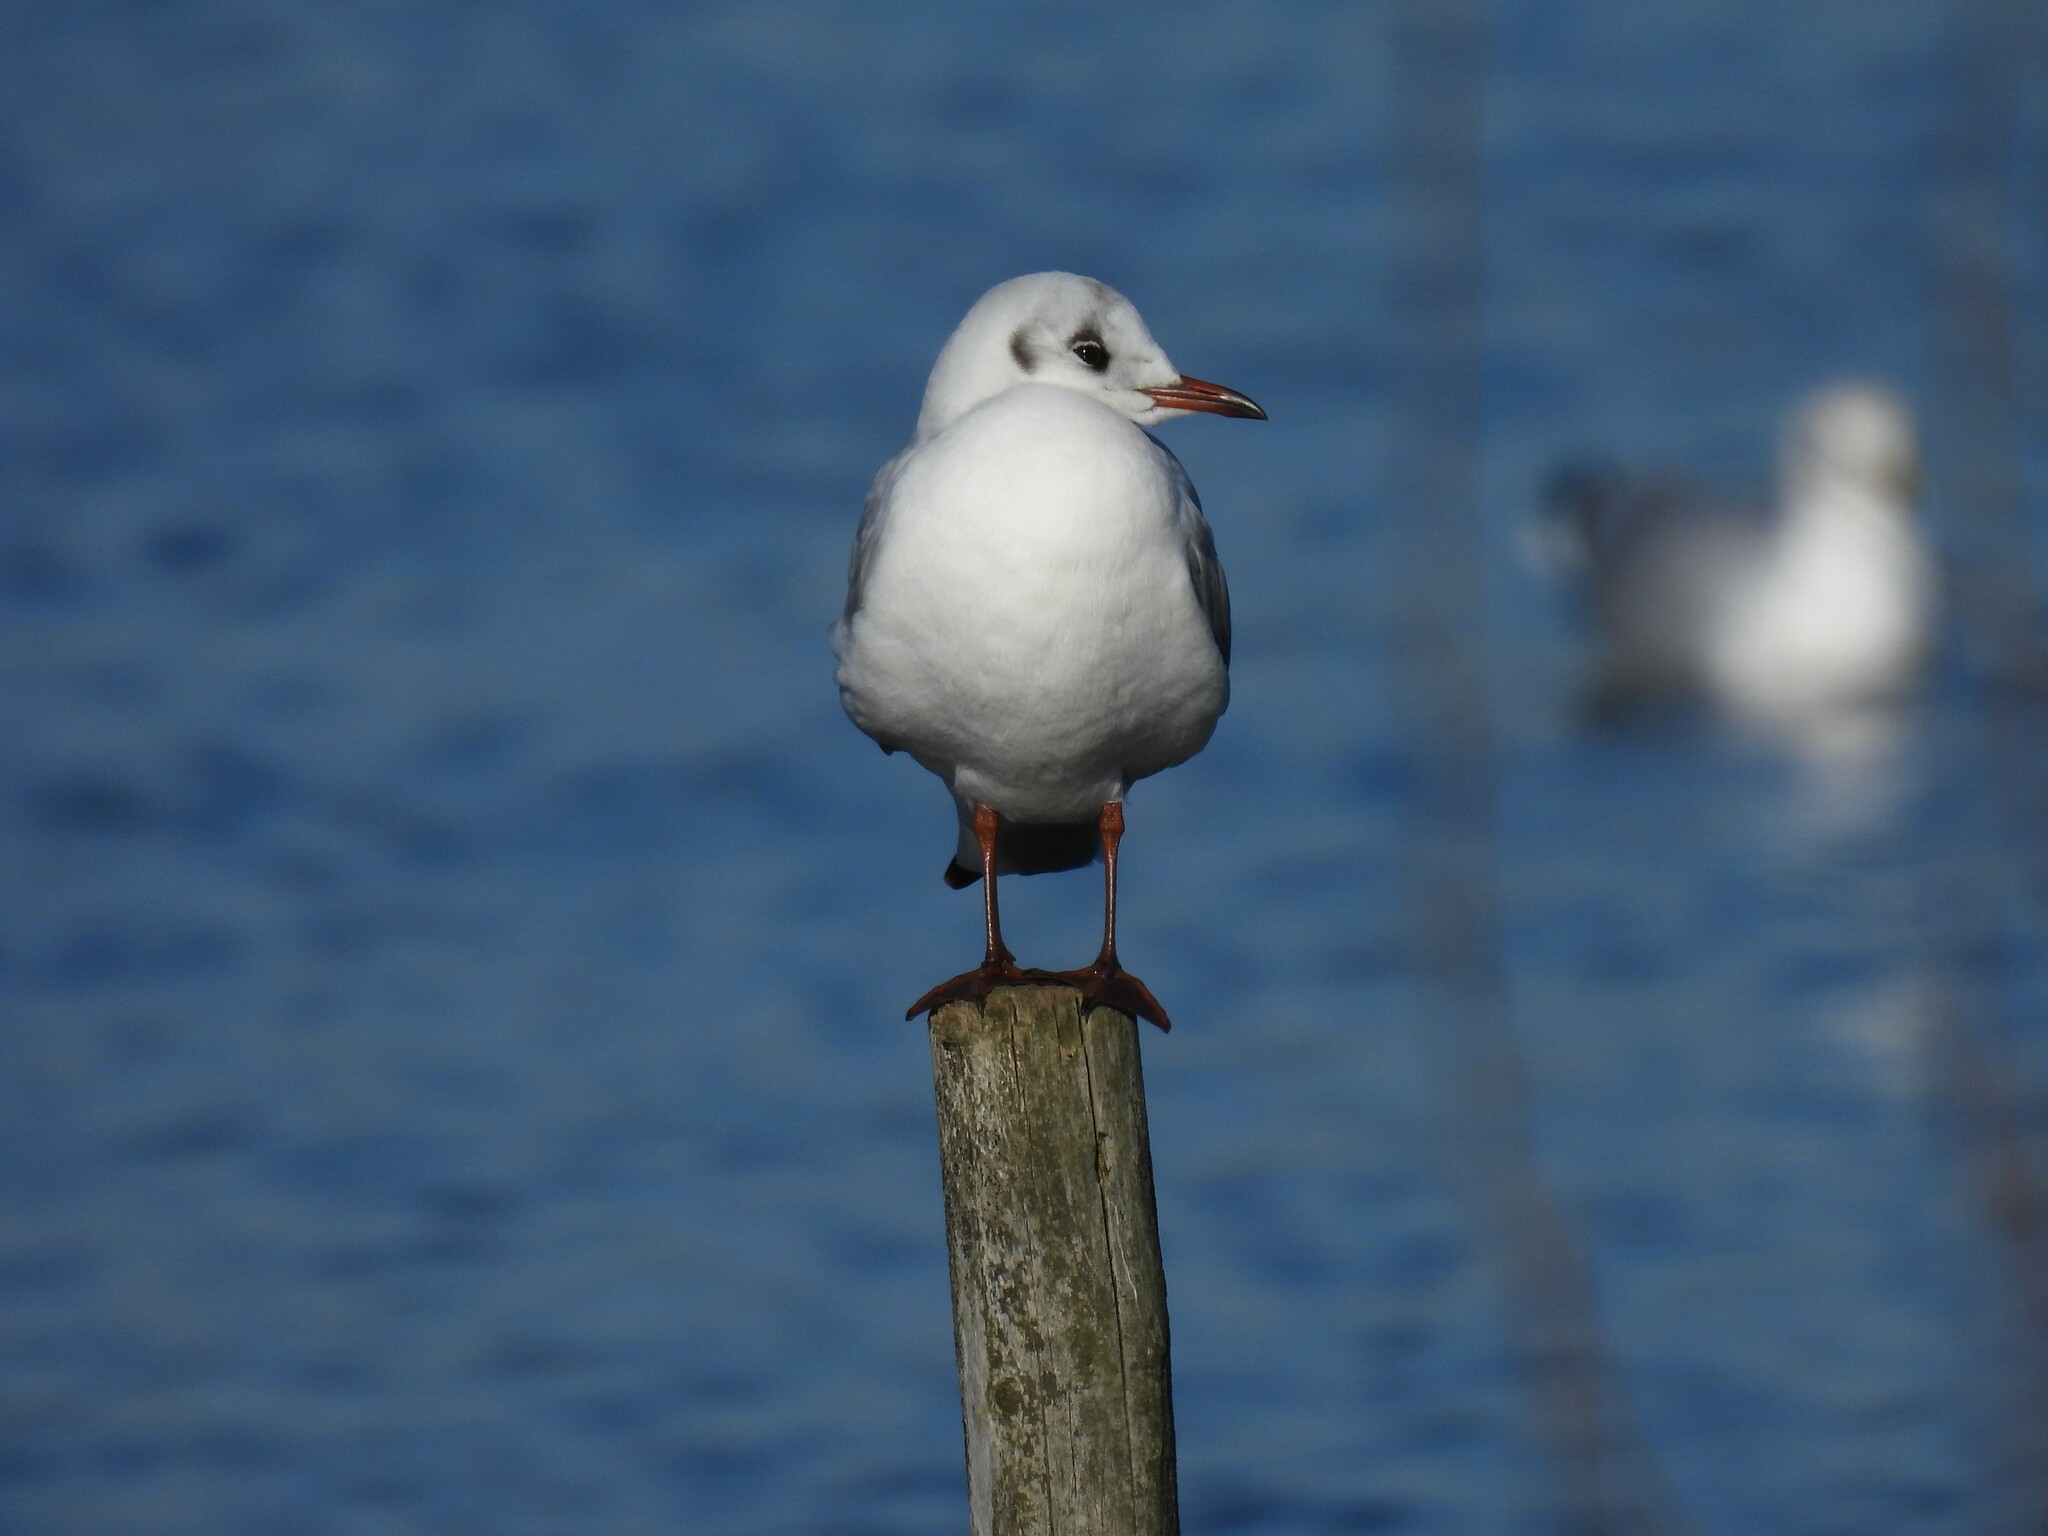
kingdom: Animalia
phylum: Chordata
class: Aves
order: Charadriiformes
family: Laridae
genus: Chroicocephalus
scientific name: Chroicocephalus ridibundus
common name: Black-headed gull
